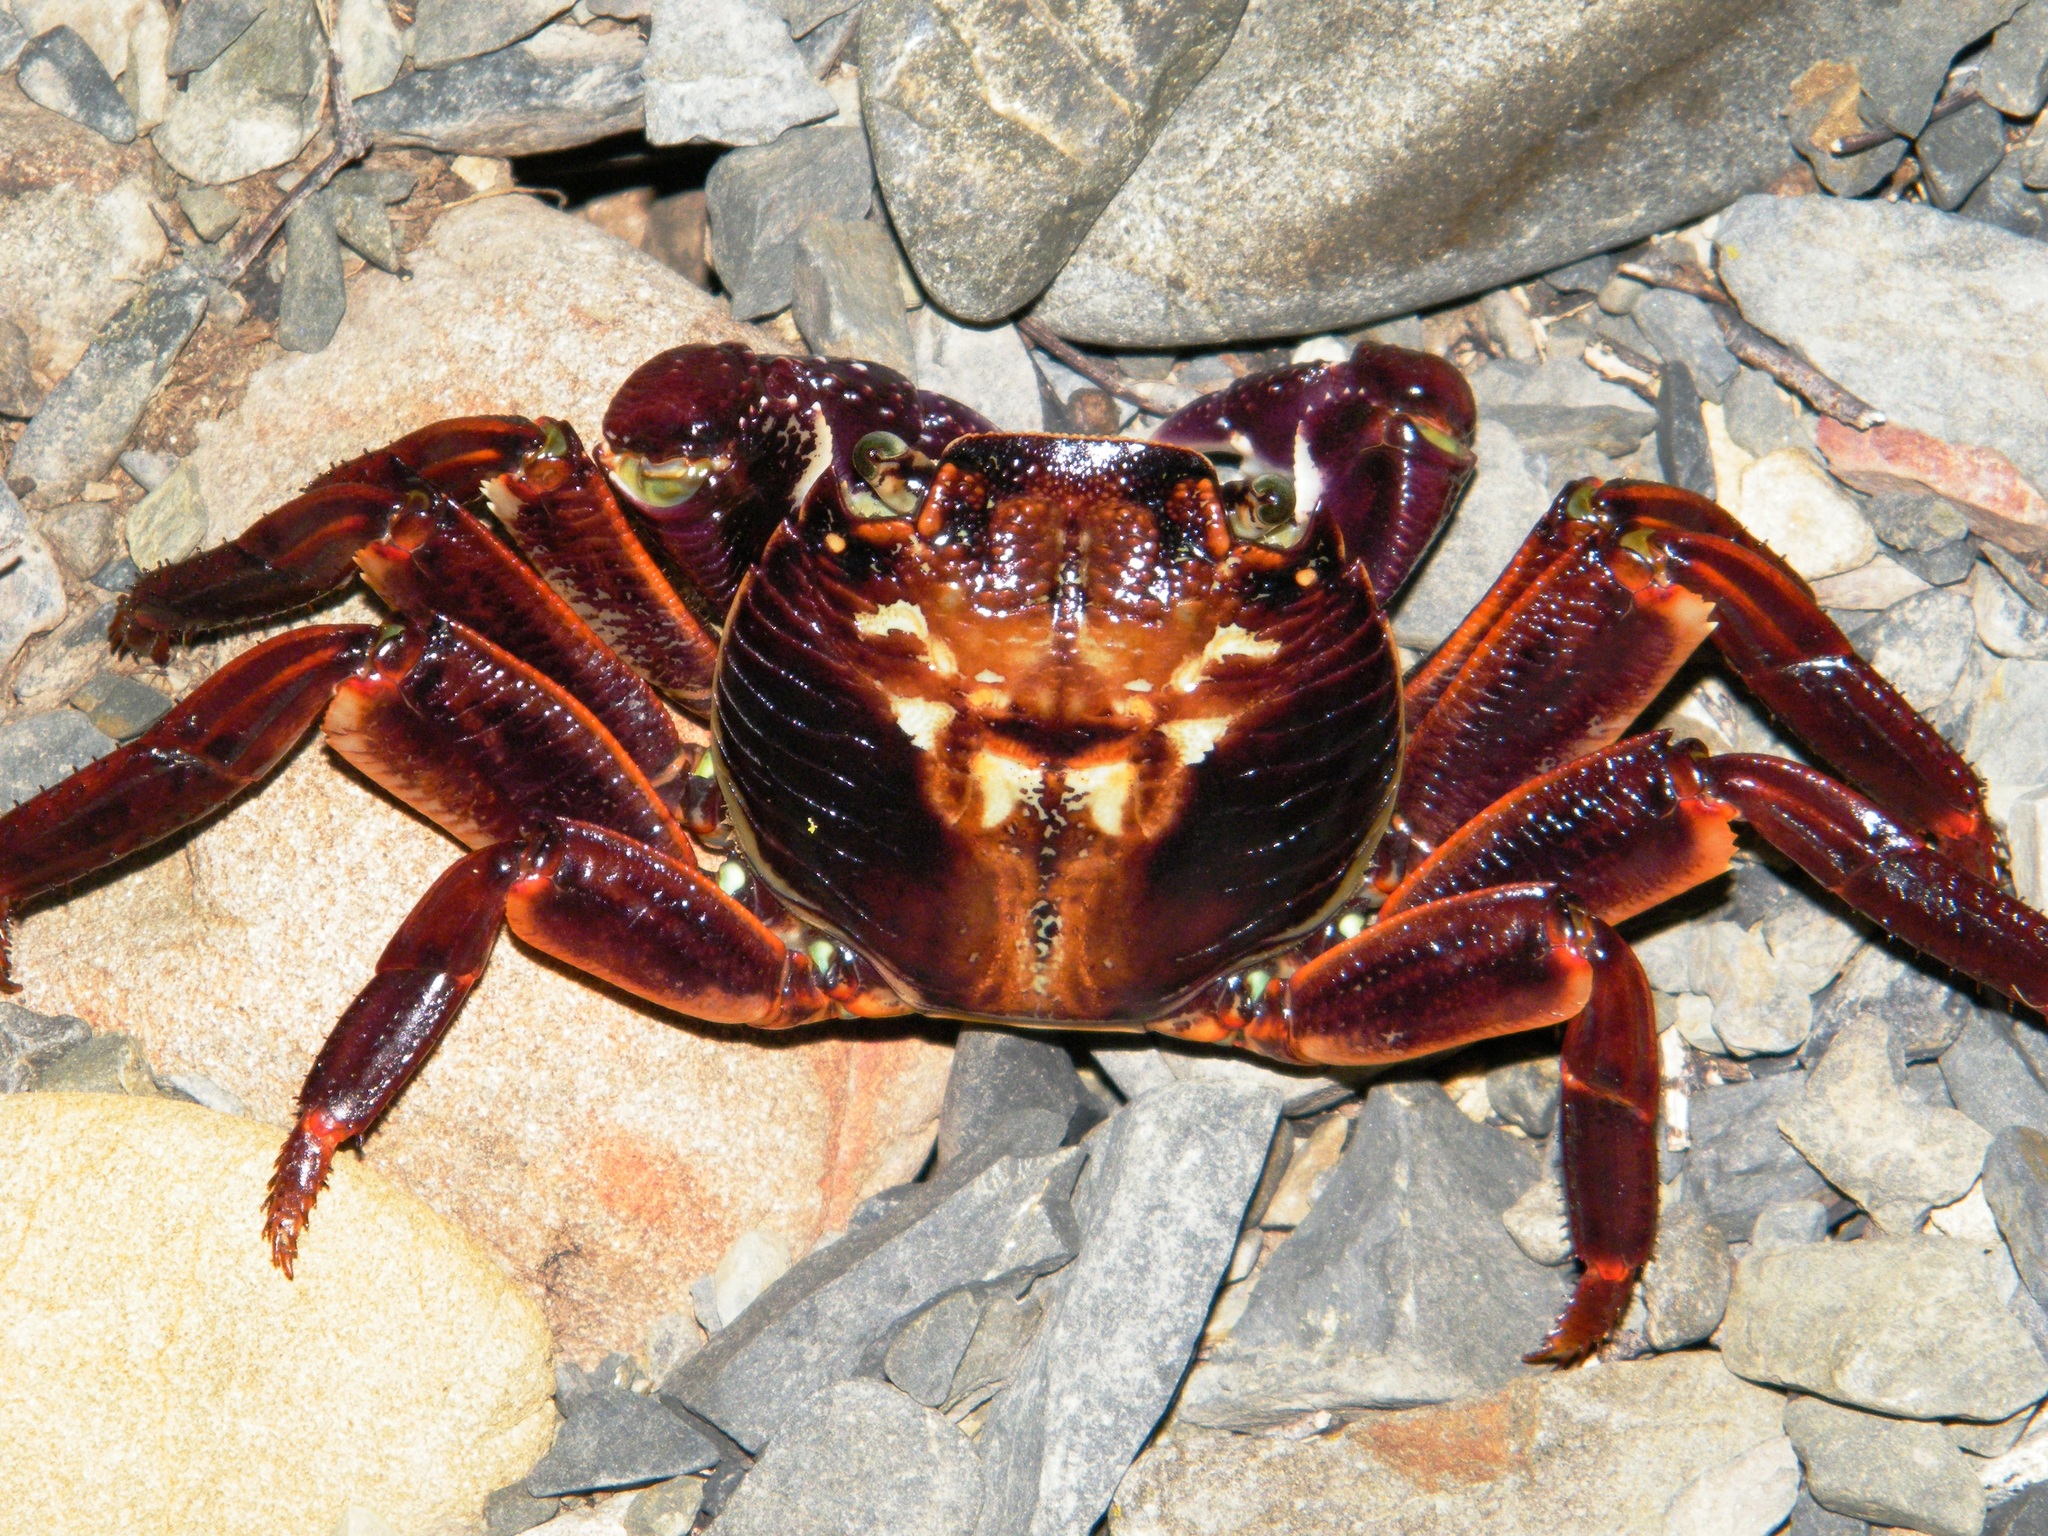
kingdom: Animalia
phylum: Arthropoda
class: Malacostraca
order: Decapoda
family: Grapsidae
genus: Leptograpsus
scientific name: Leptograpsus variegatus
